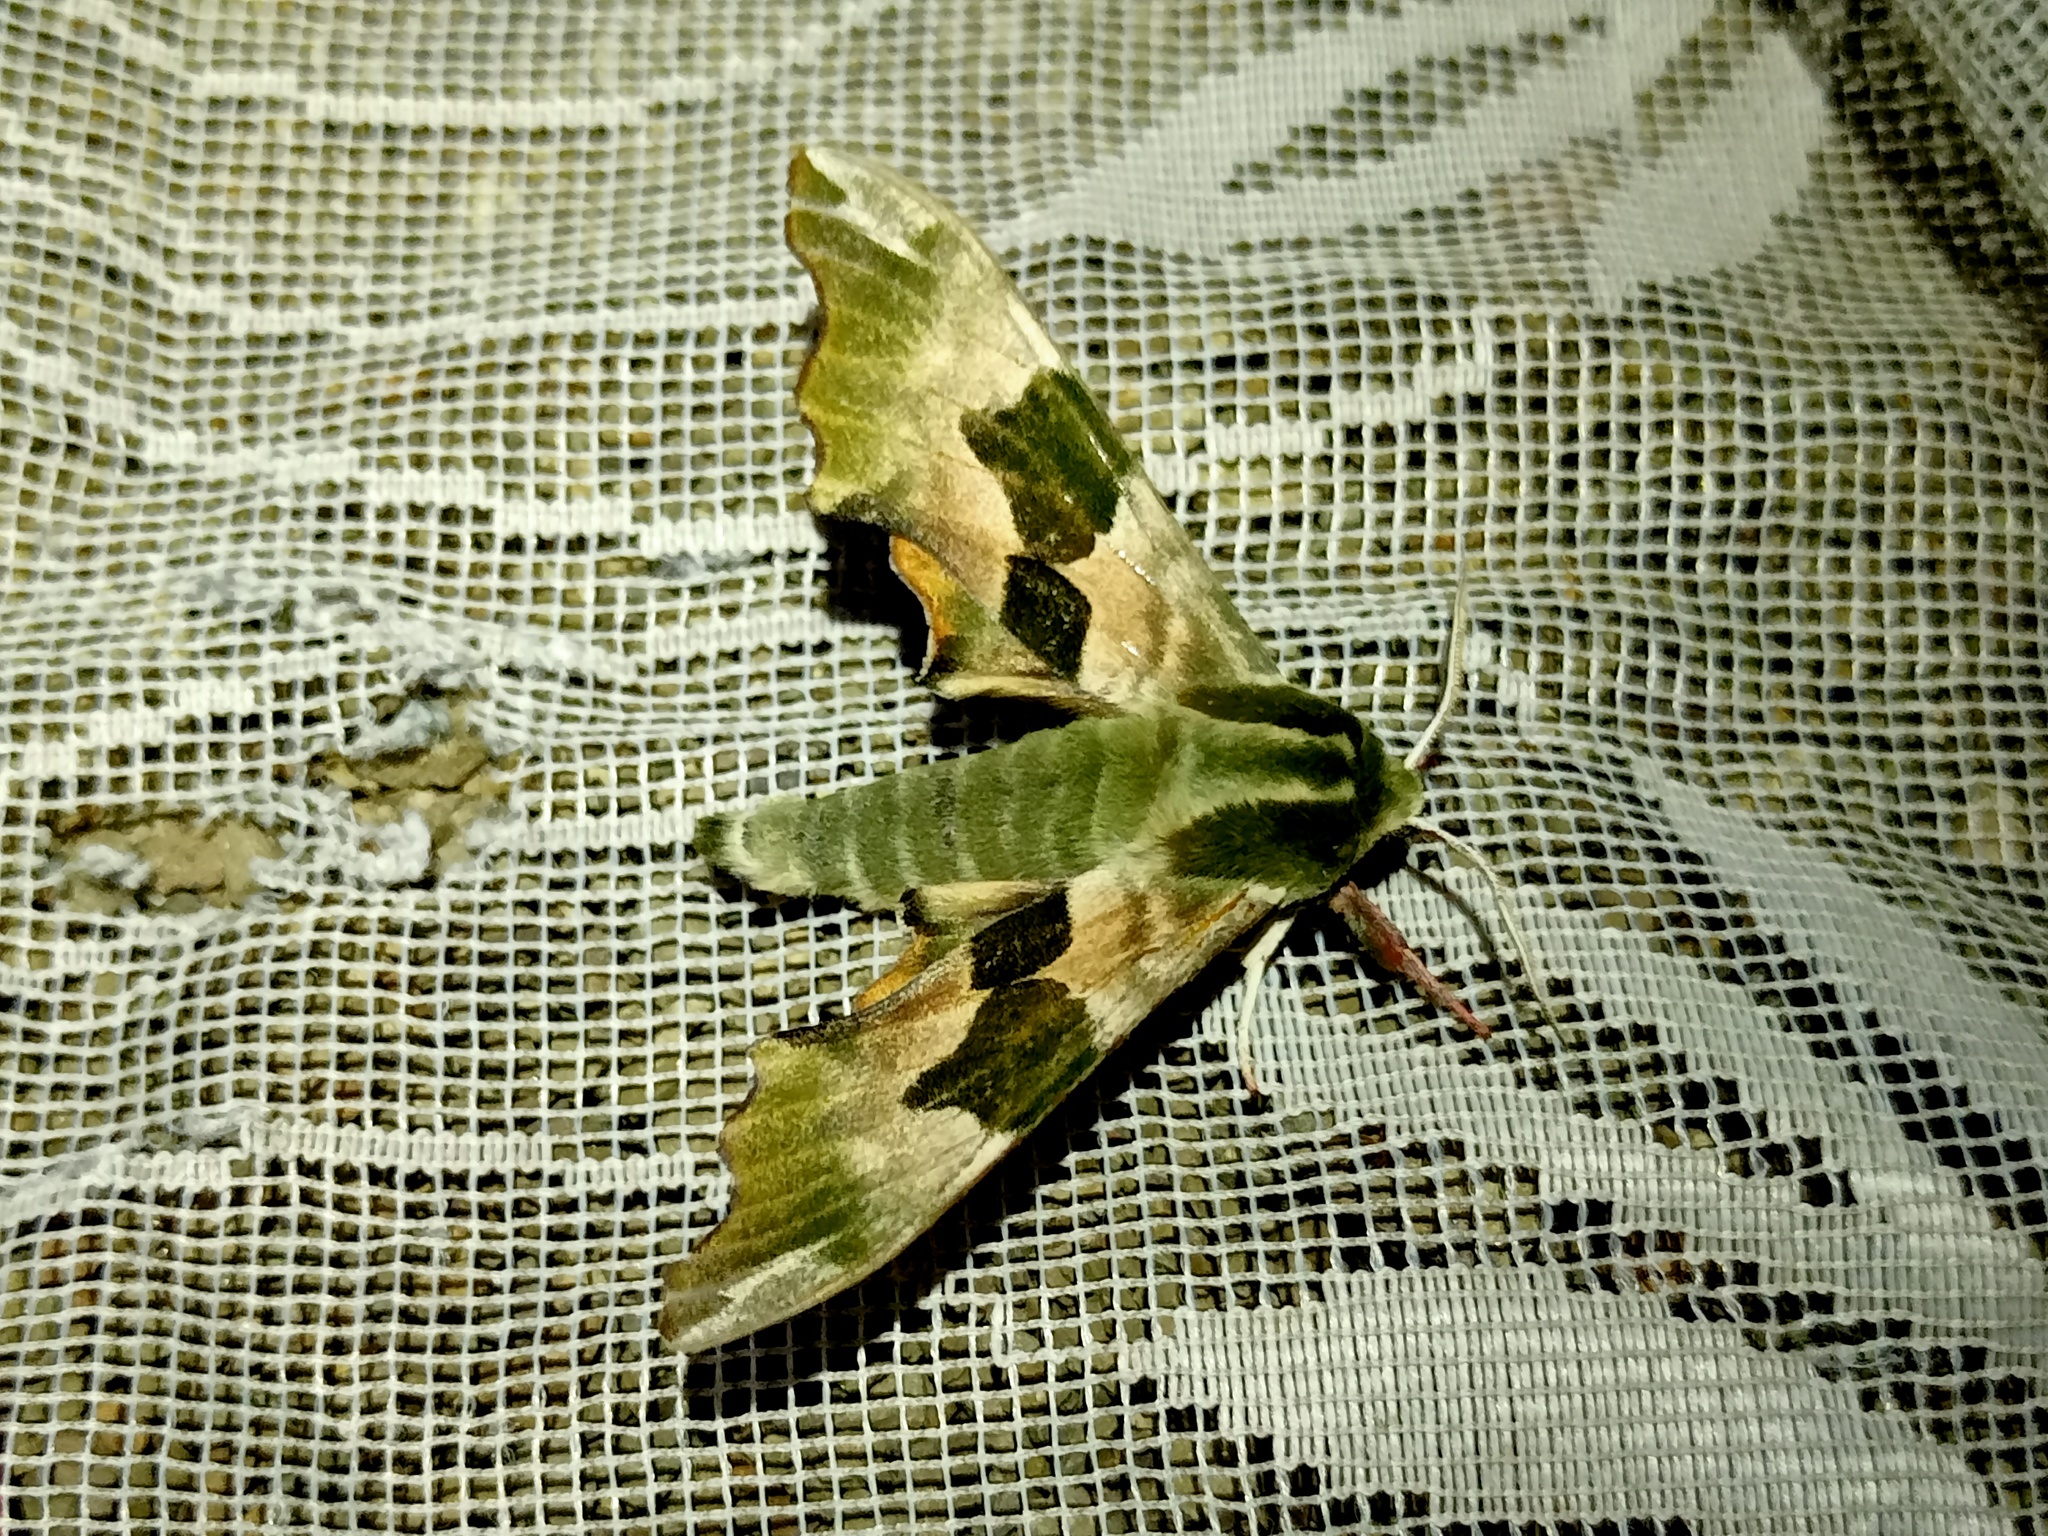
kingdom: Animalia
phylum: Arthropoda
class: Insecta
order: Lepidoptera
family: Sphingidae
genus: Mimas
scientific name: Mimas tiliae
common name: Lime hawk-moth
